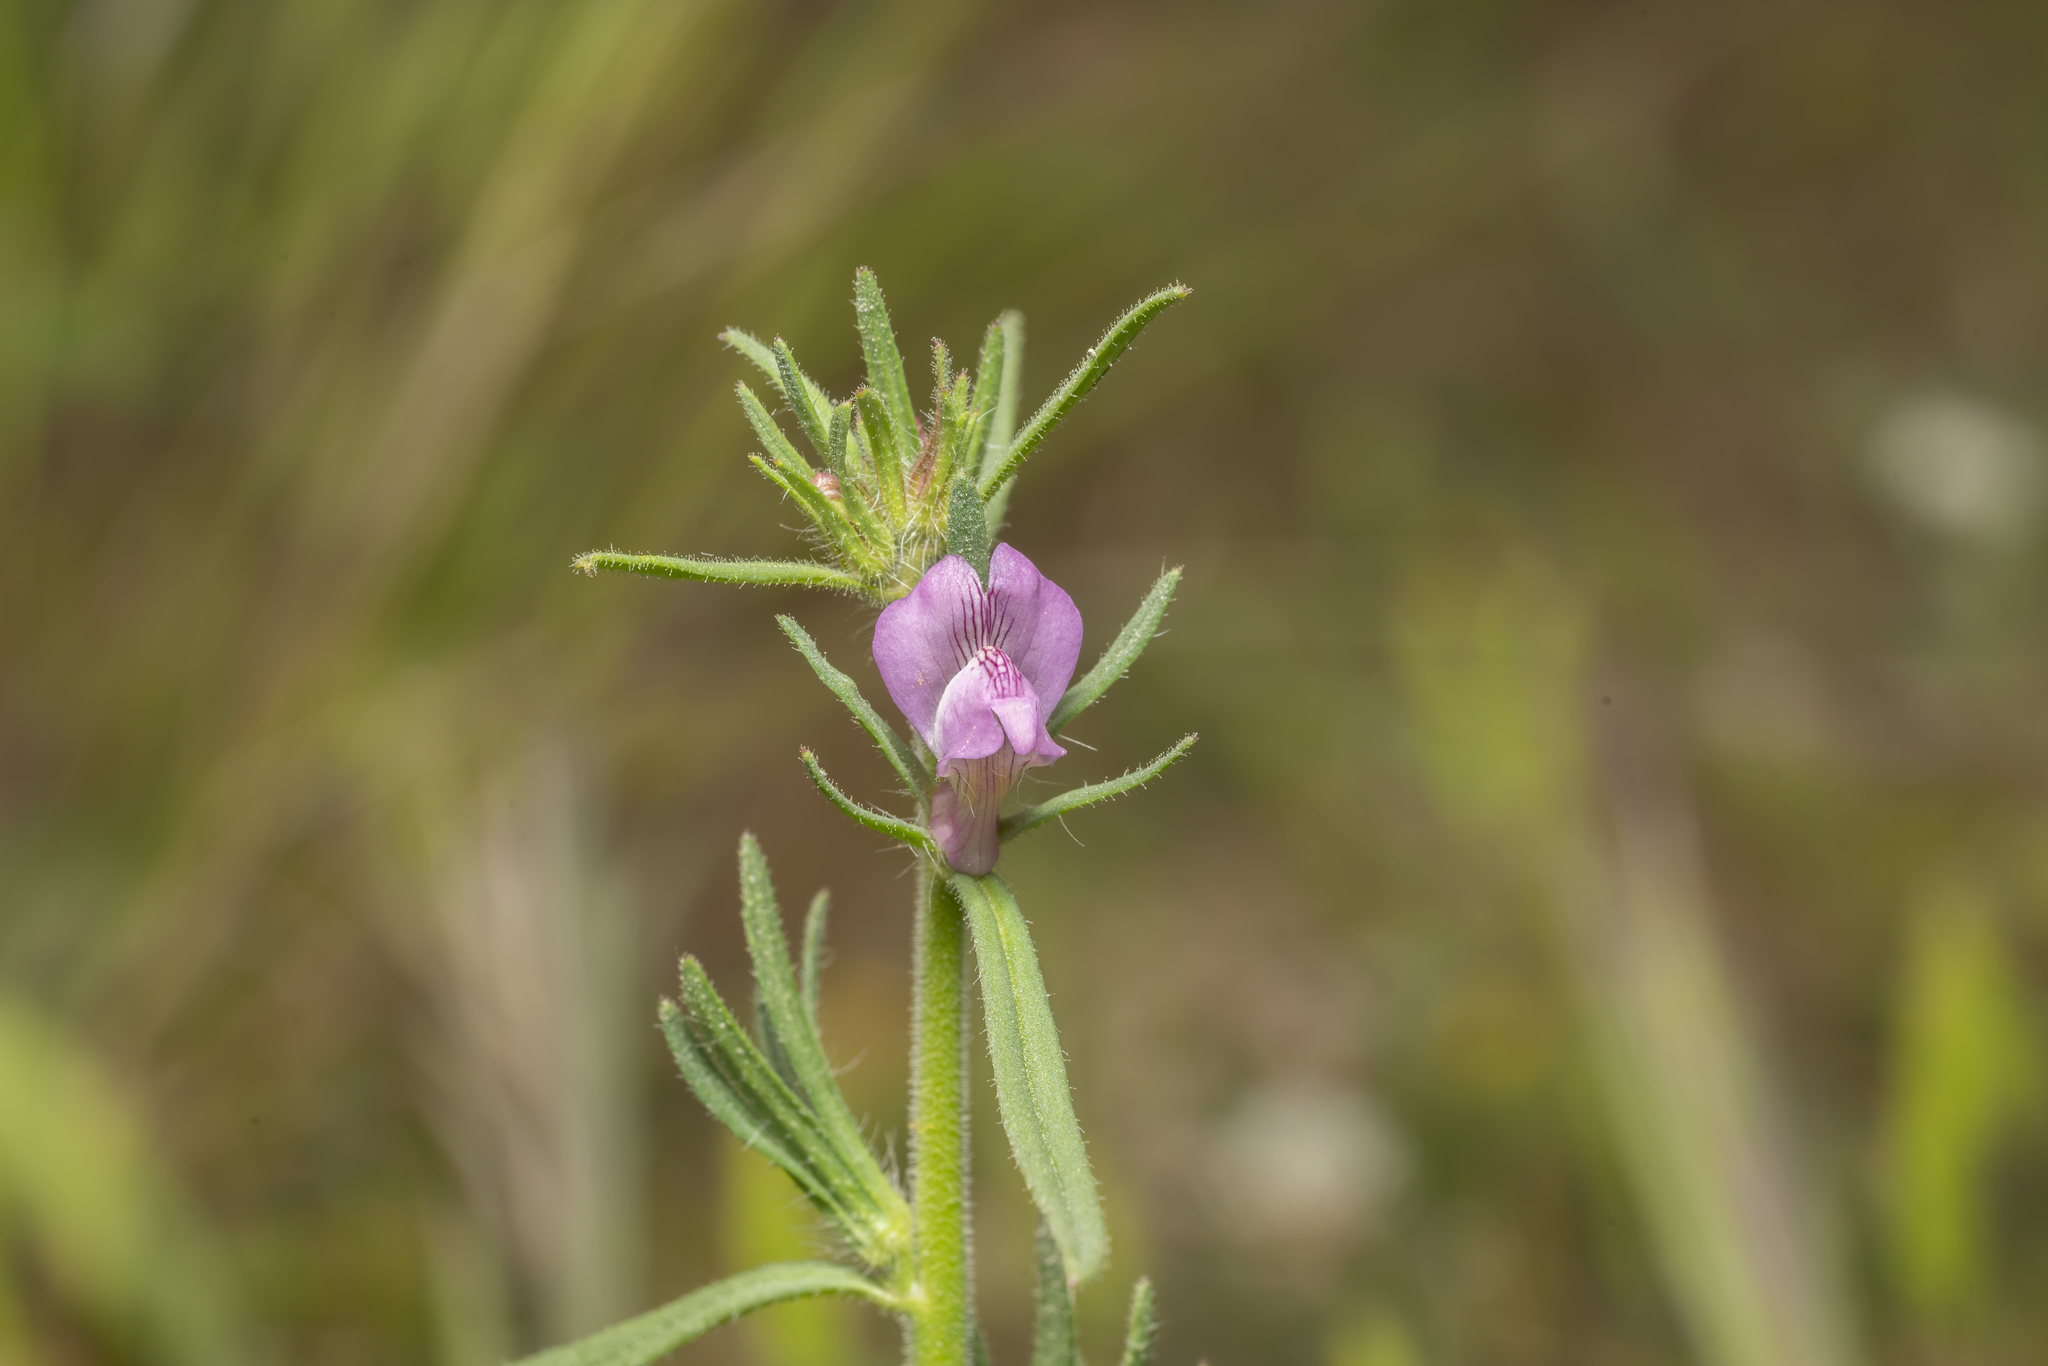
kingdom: Plantae
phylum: Tracheophyta
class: Magnoliopsida
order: Lamiales
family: Plantaginaceae
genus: Misopates
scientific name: Misopates orontium
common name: Weasel's-snout
